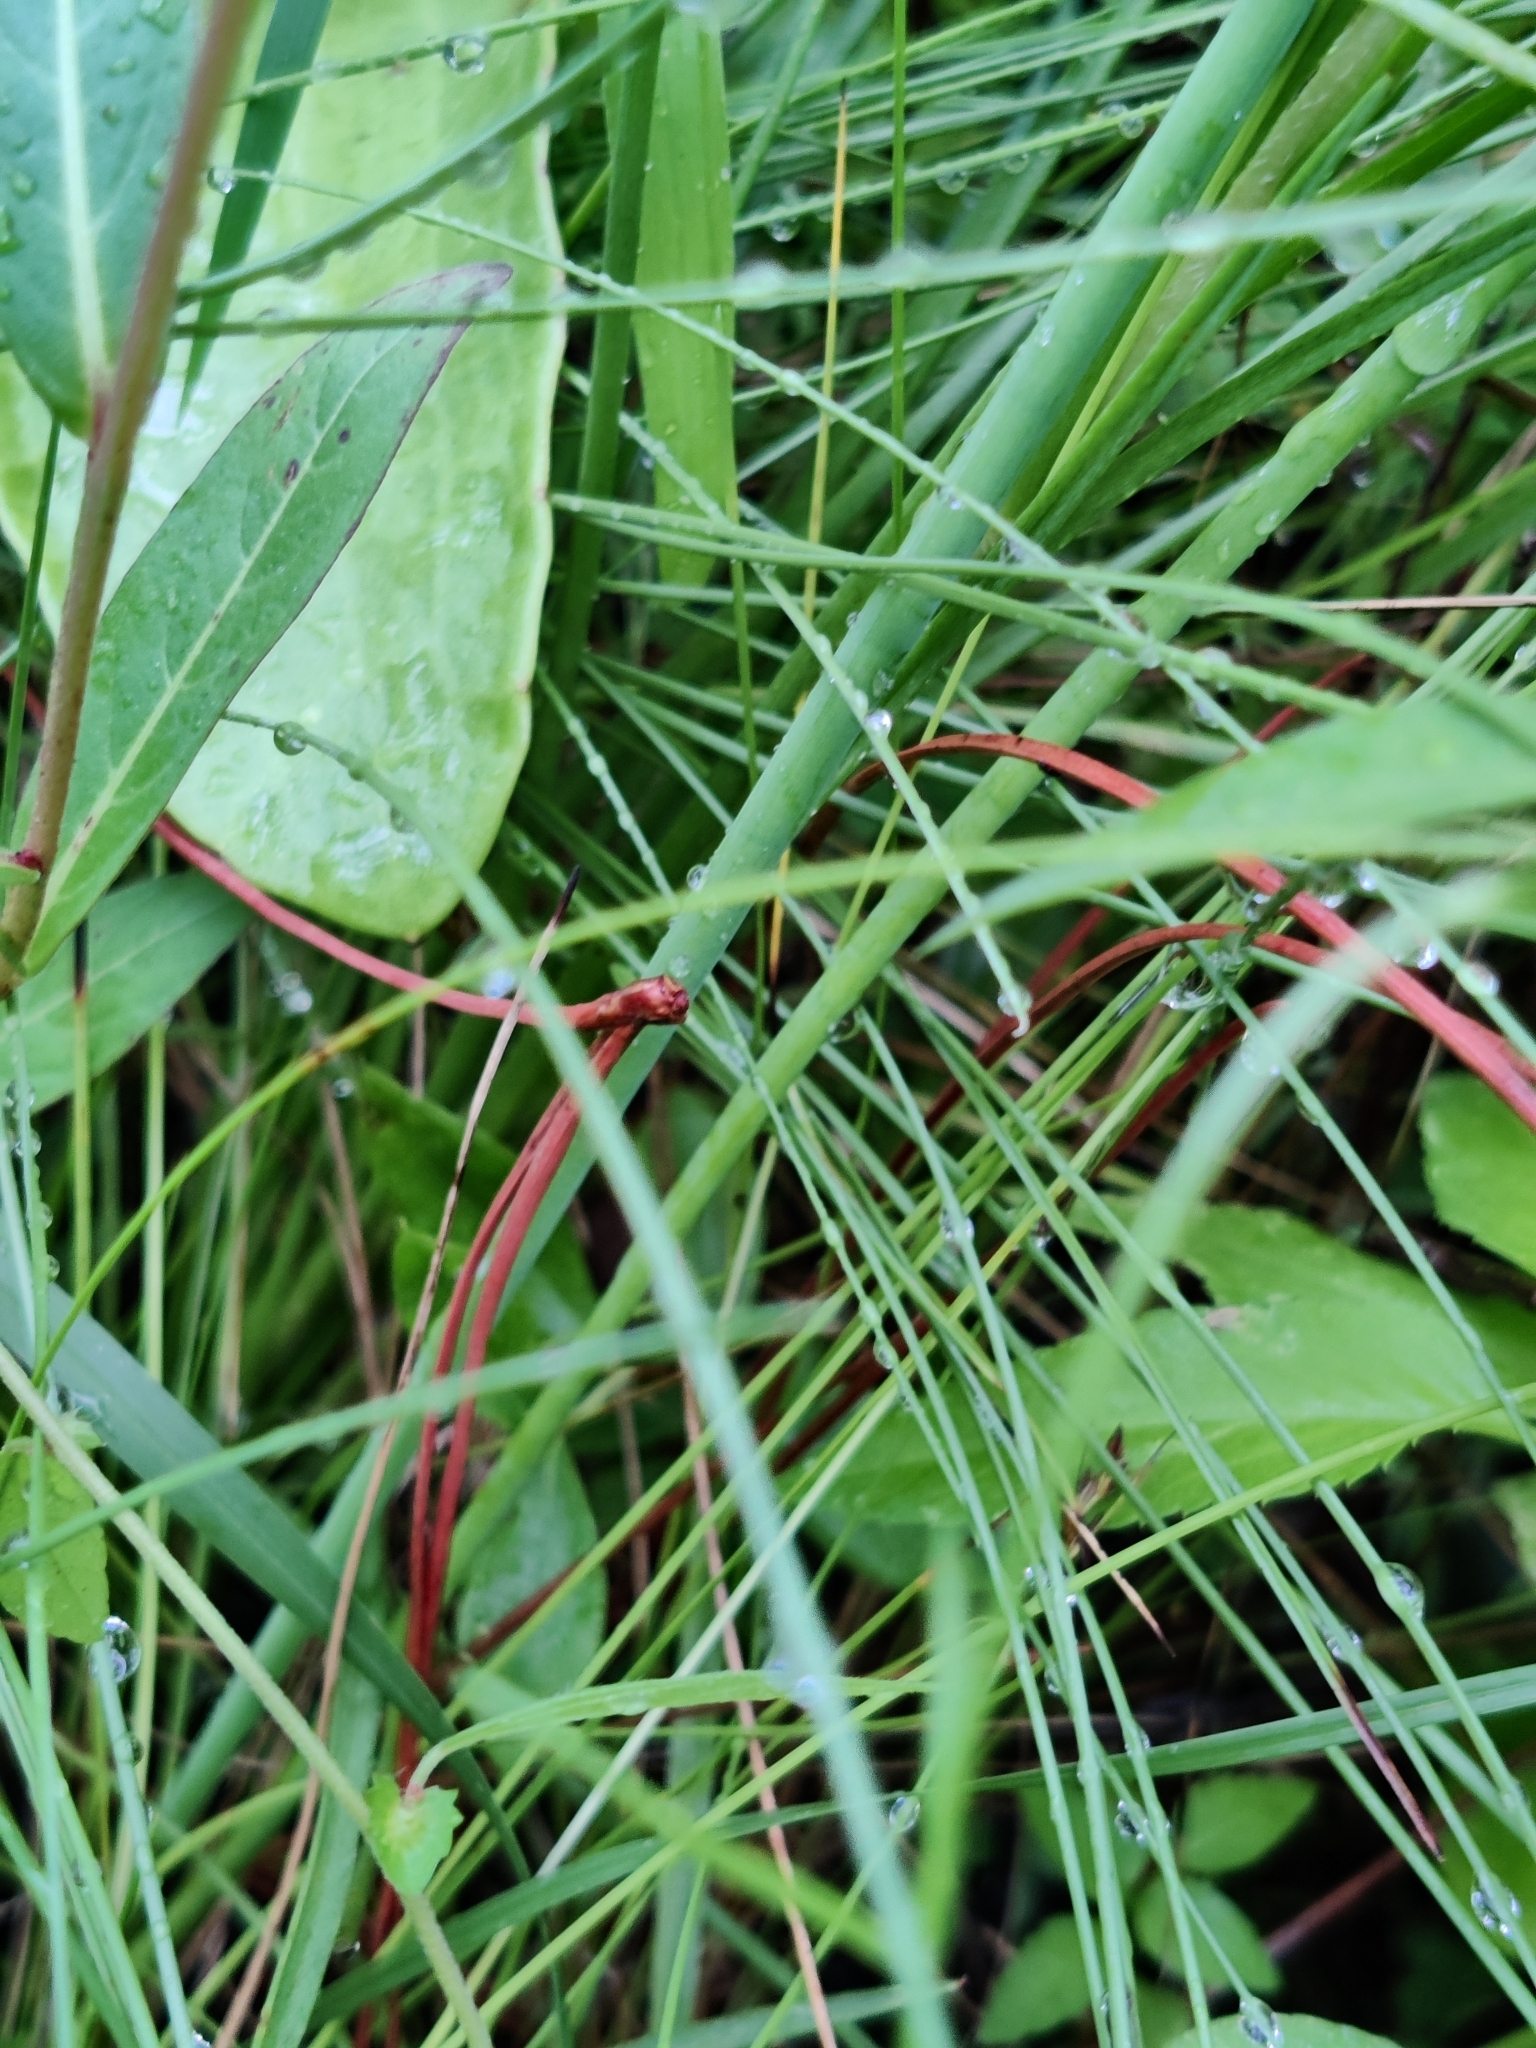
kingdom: Plantae
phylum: Tracheophyta
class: Magnoliopsida
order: Asterales
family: Asteraceae
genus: Eurybia
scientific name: Eurybia spinulosa
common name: Apalachicola aster
